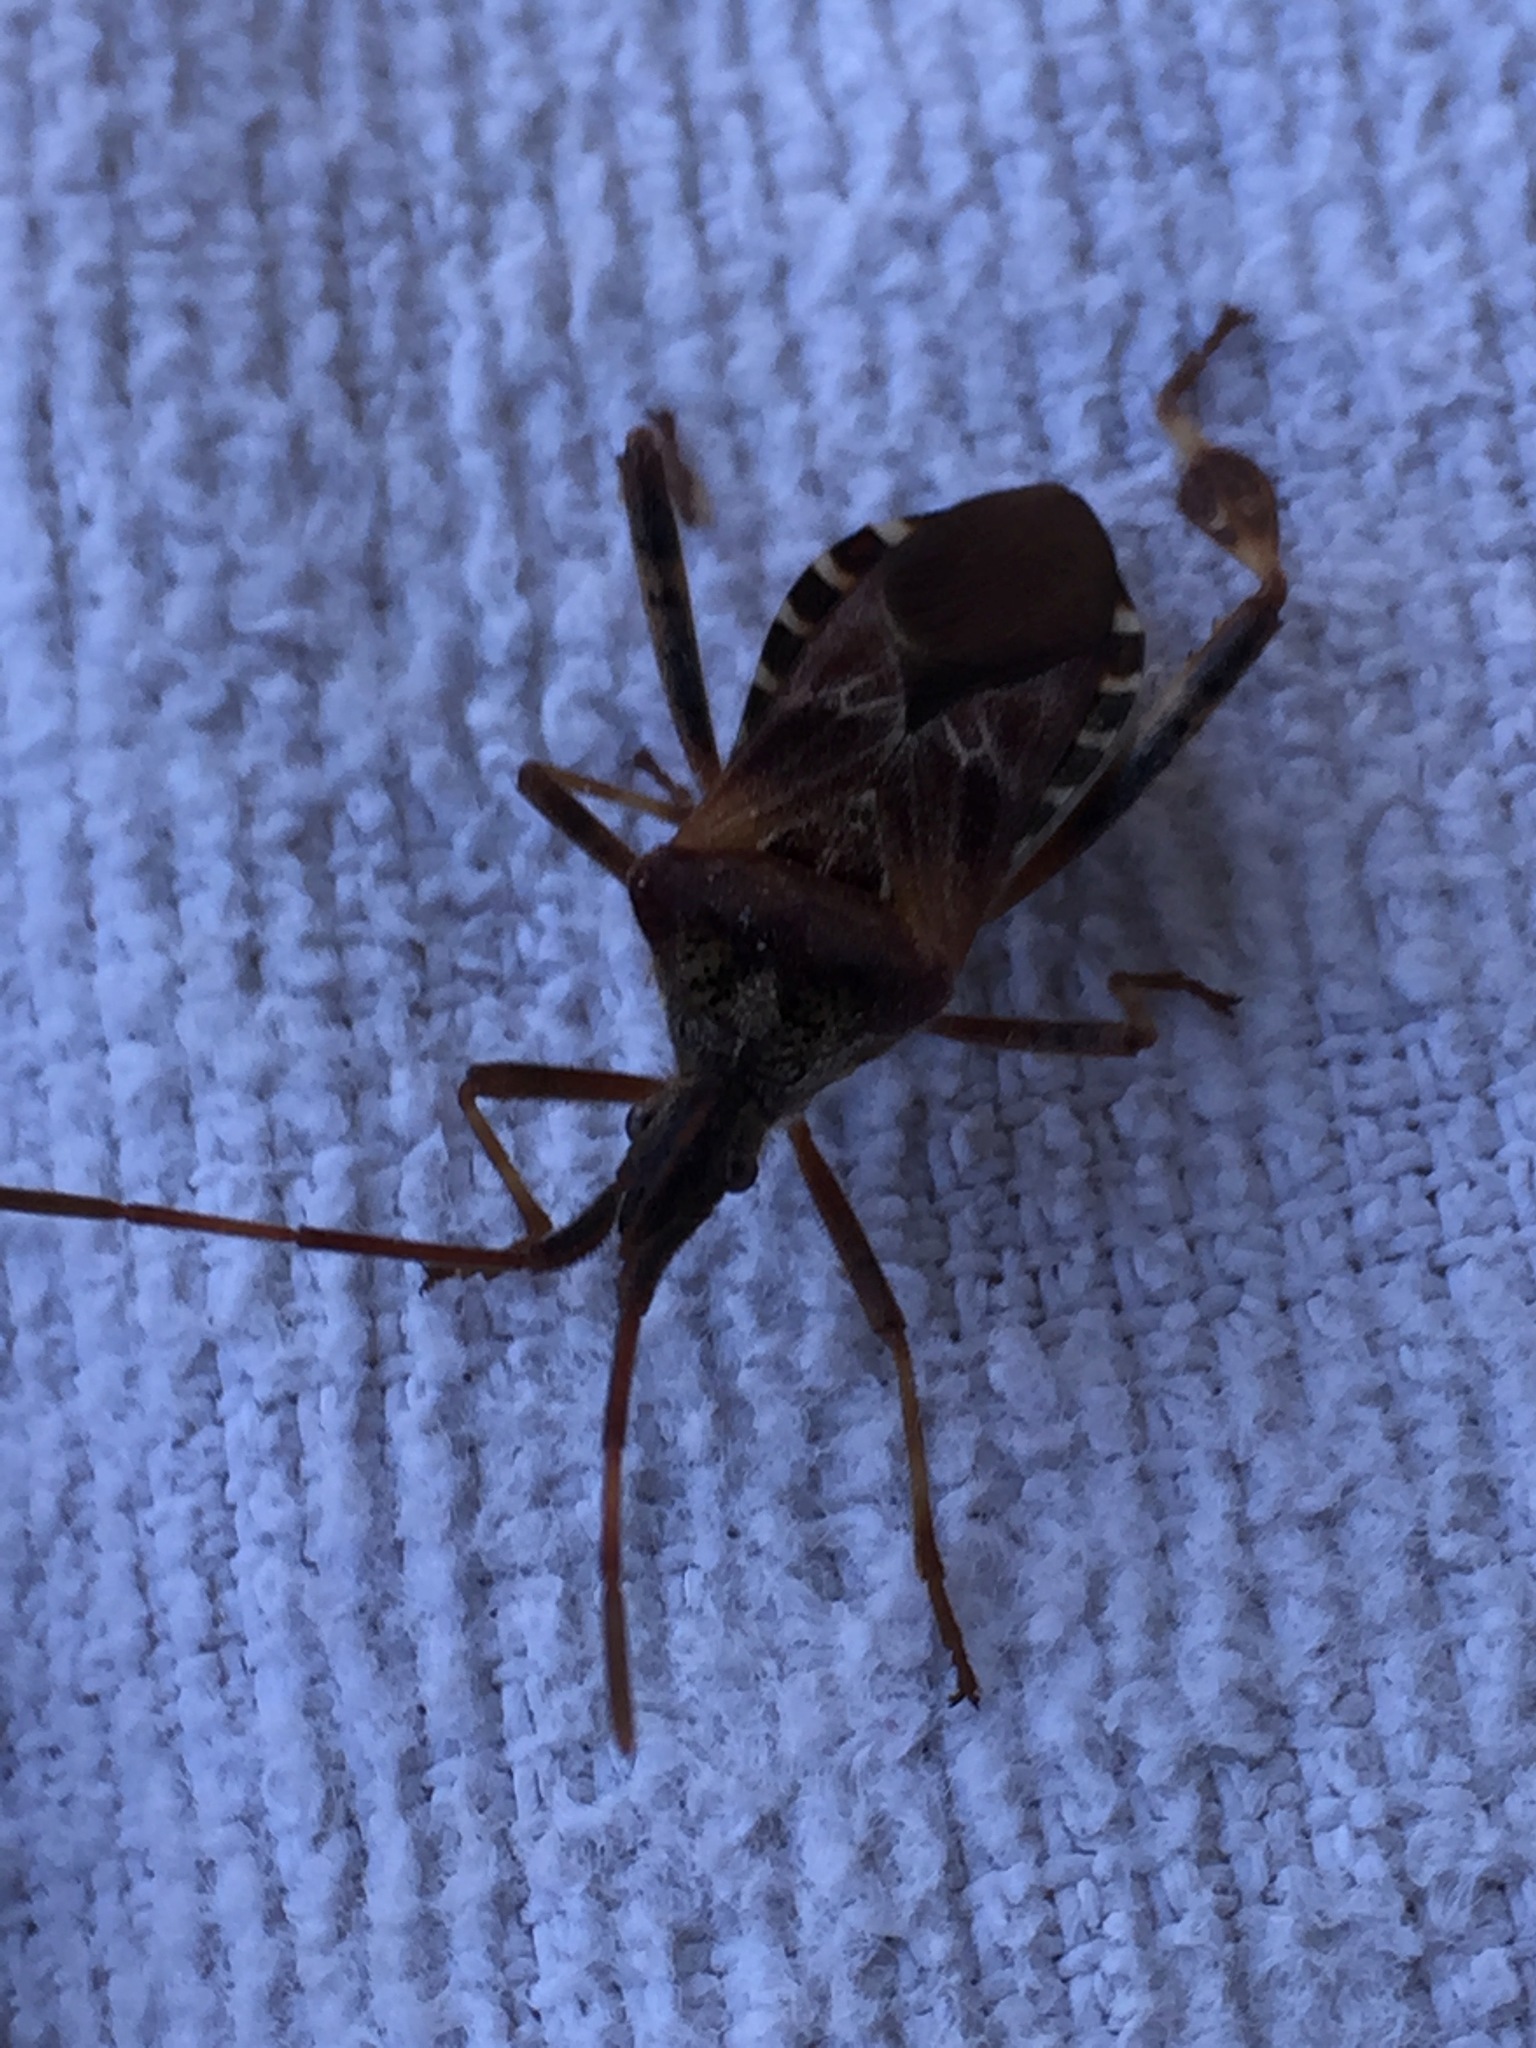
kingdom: Animalia
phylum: Arthropoda
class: Insecta
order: Hemiptera
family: Coreidae
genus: Leptoglossus
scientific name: Leptoglossus occidentalis
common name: Western conifer-seed bug
